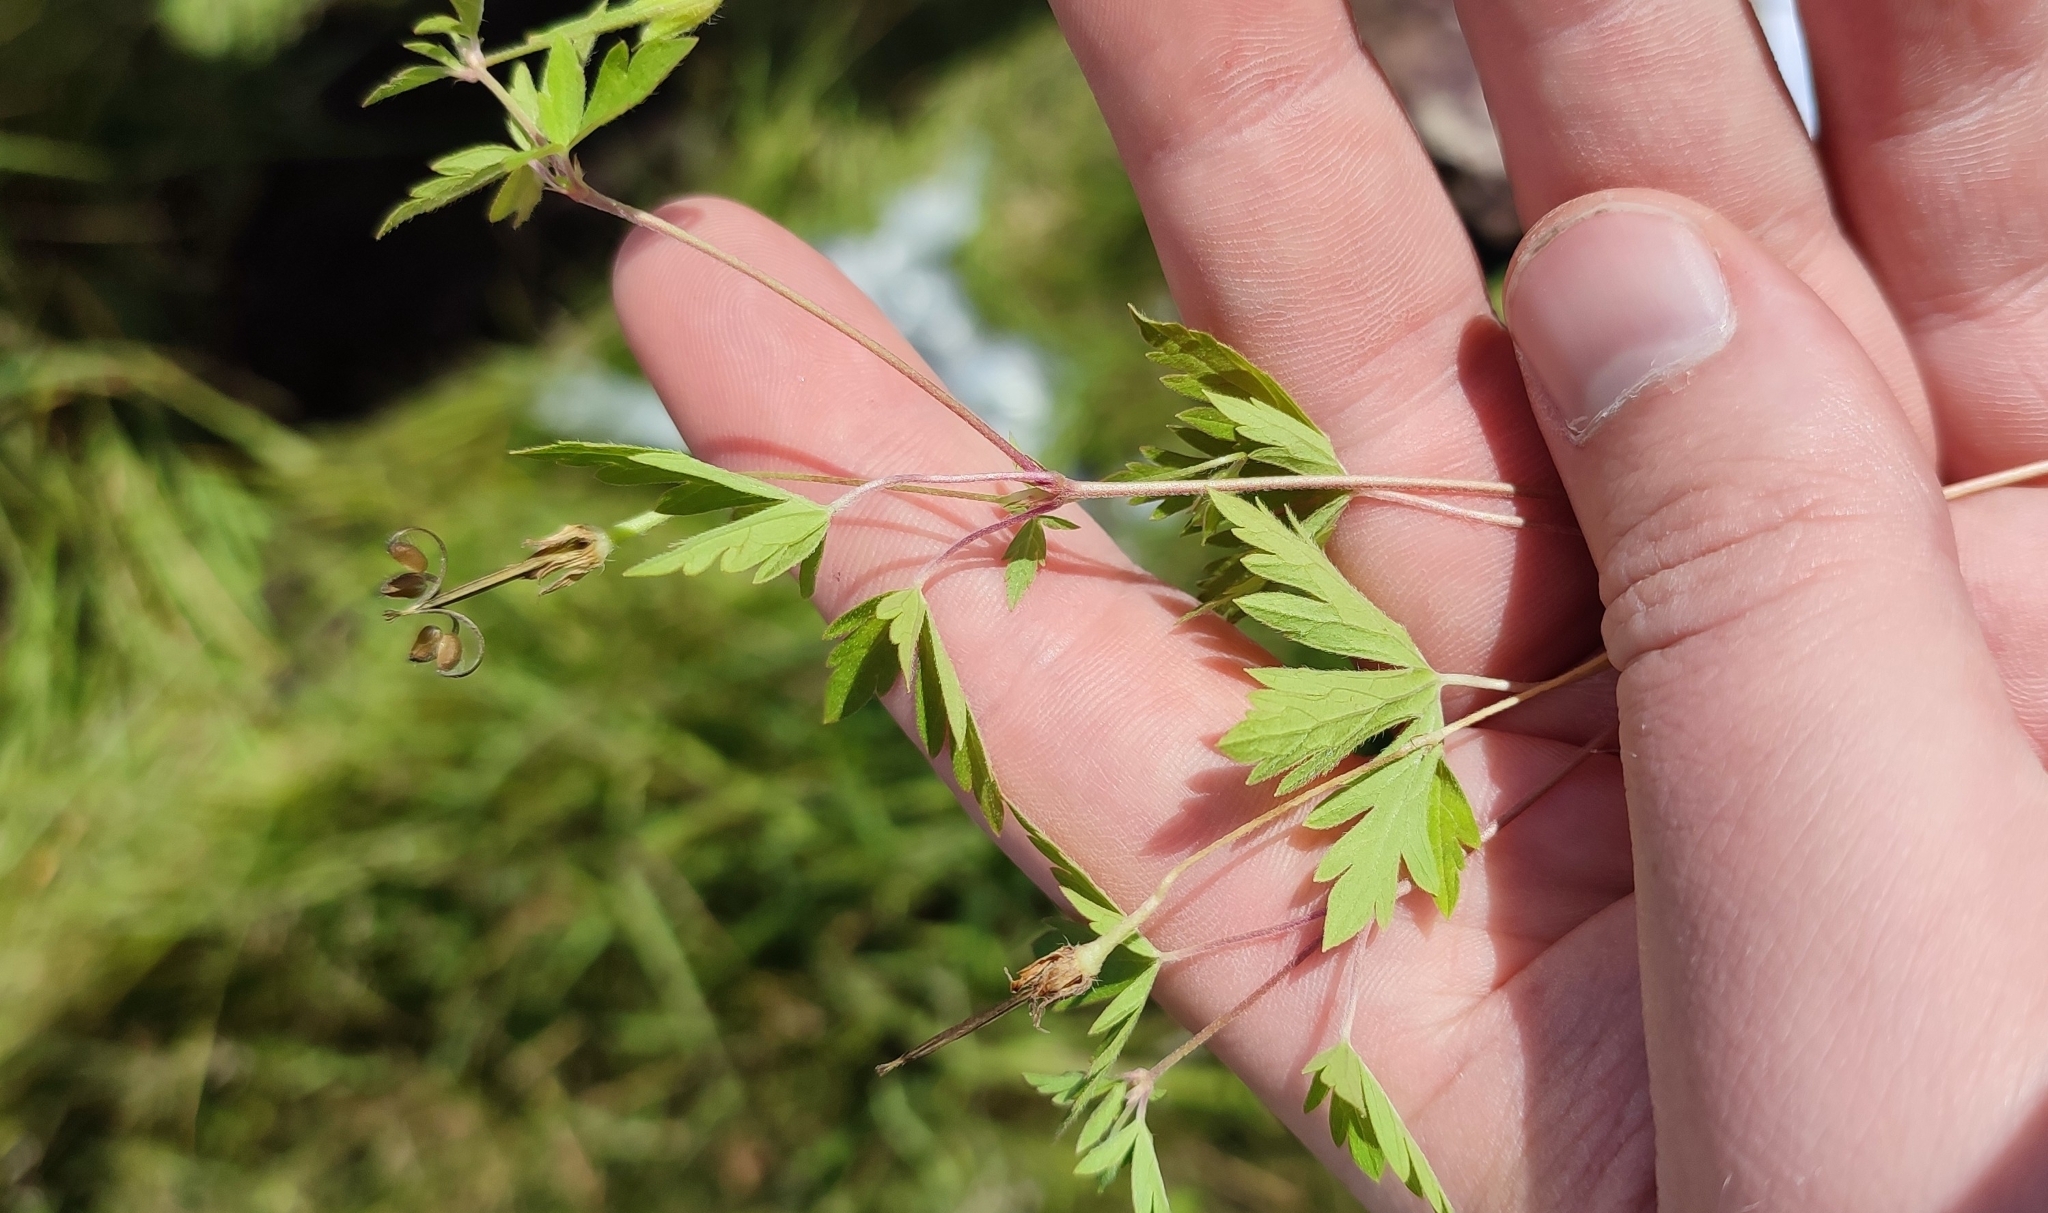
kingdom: Plantae
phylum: Tracheophyta
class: Magnoliopsida
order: Geraniales
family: Geraniaceae
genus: Geranium
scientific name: Geranium sibiricum
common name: Siberian crane's-bill
